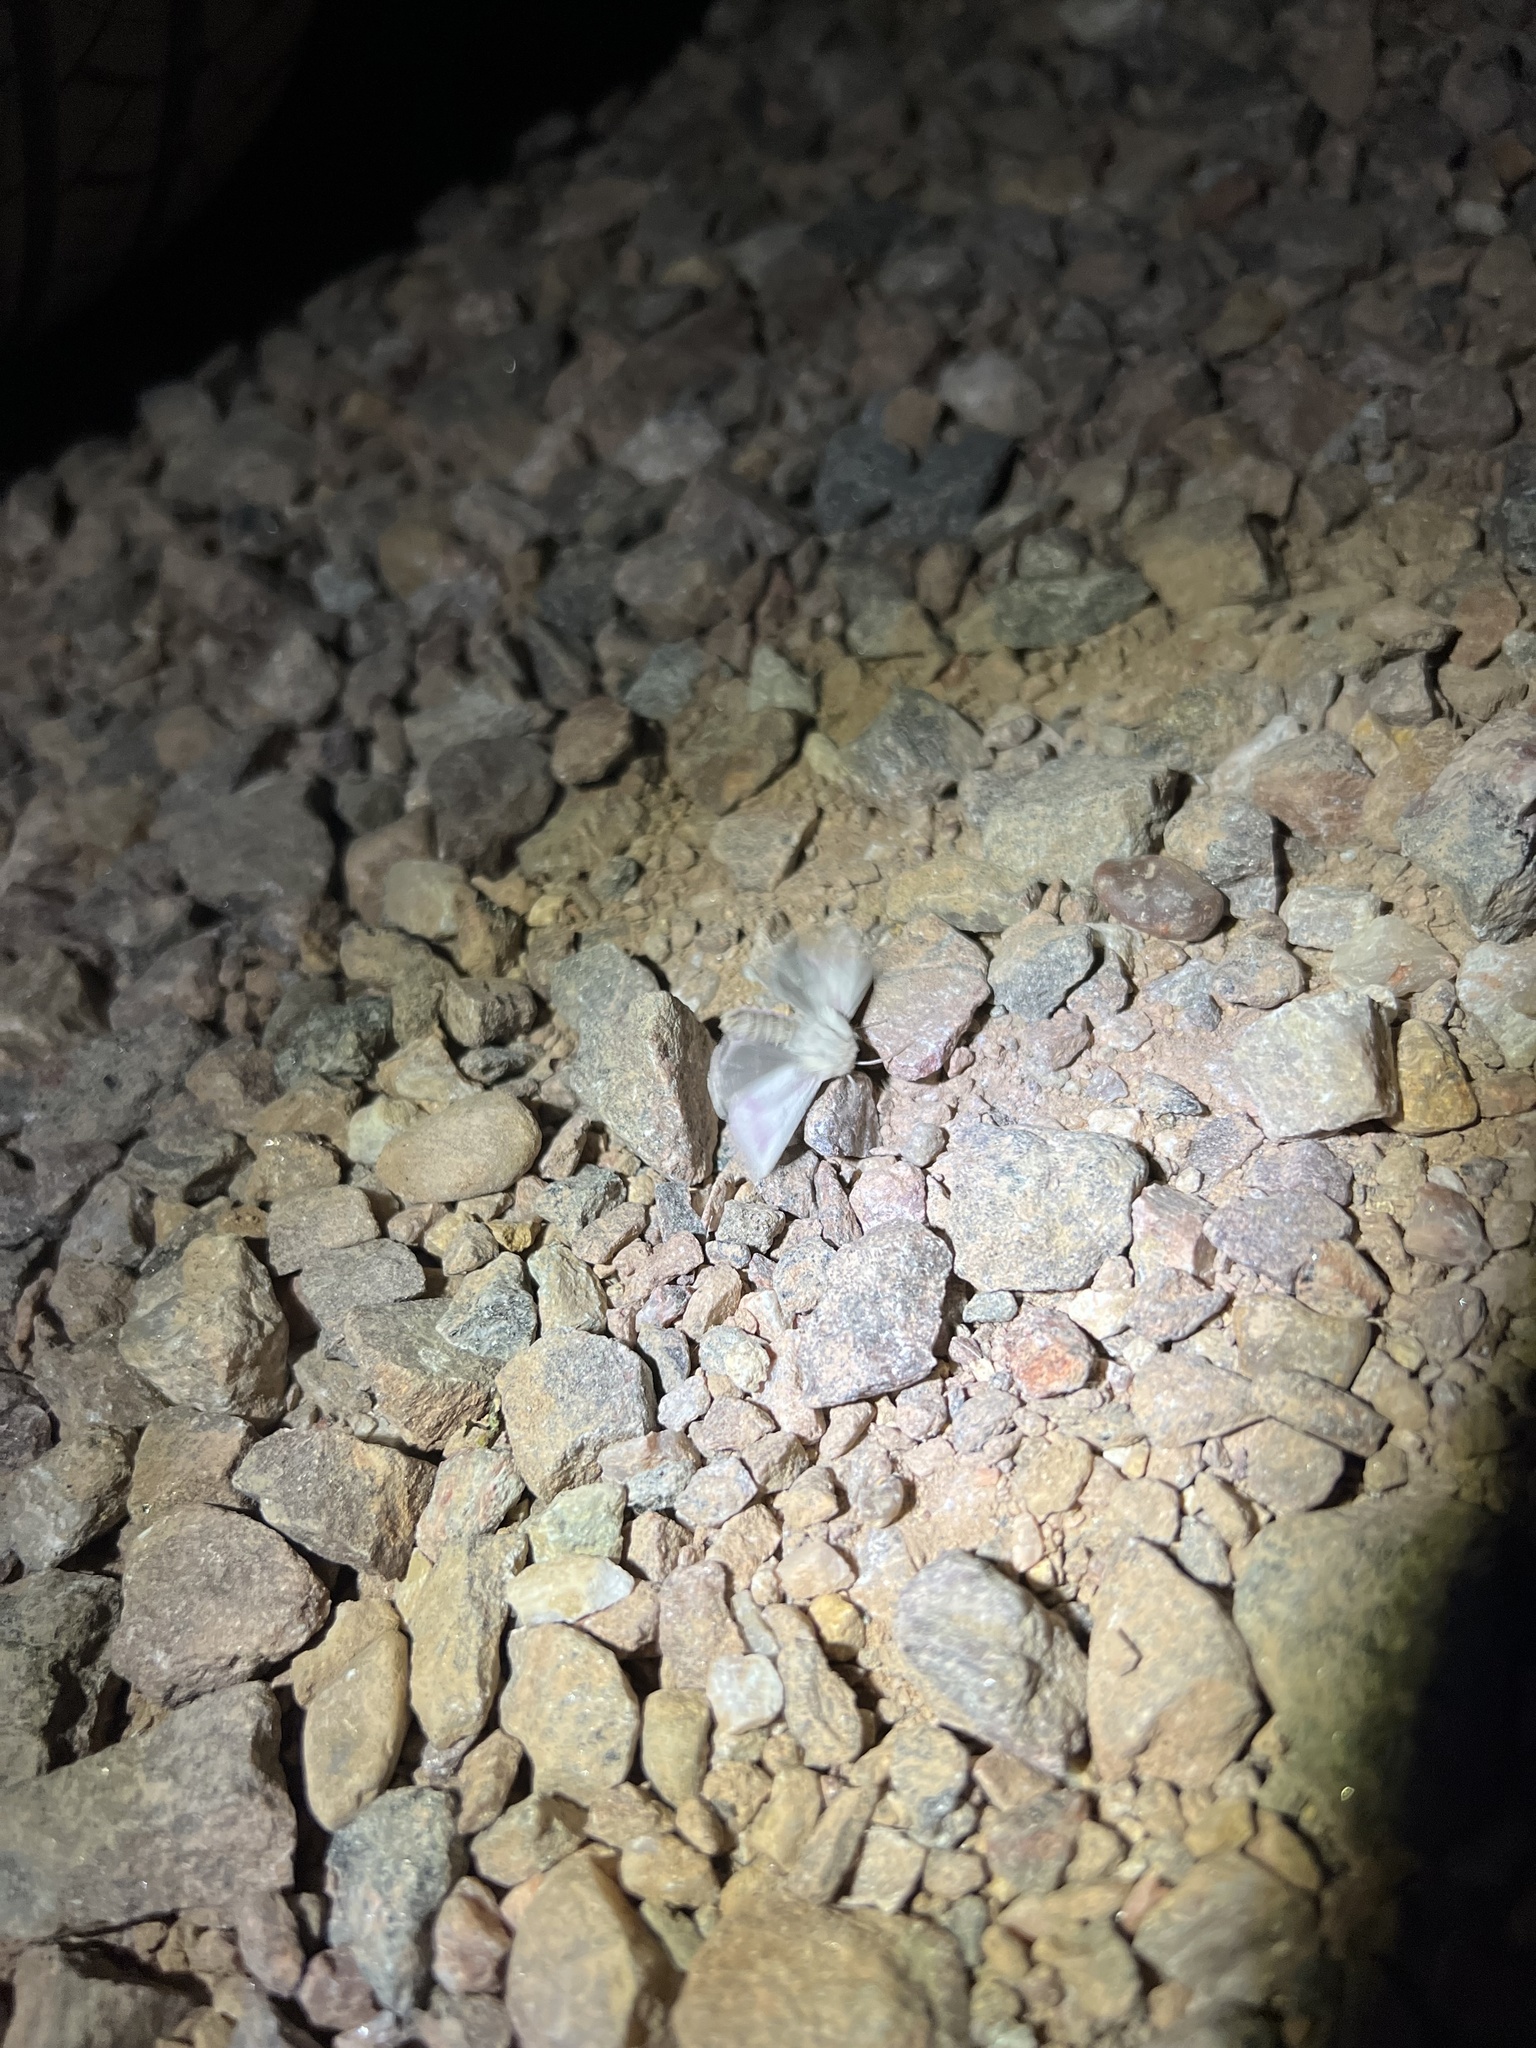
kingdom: Animalia
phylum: Arthropoda
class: Insecta
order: Lepidoptera
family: Noctuidae
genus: Schinia
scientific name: Schinia snowi
